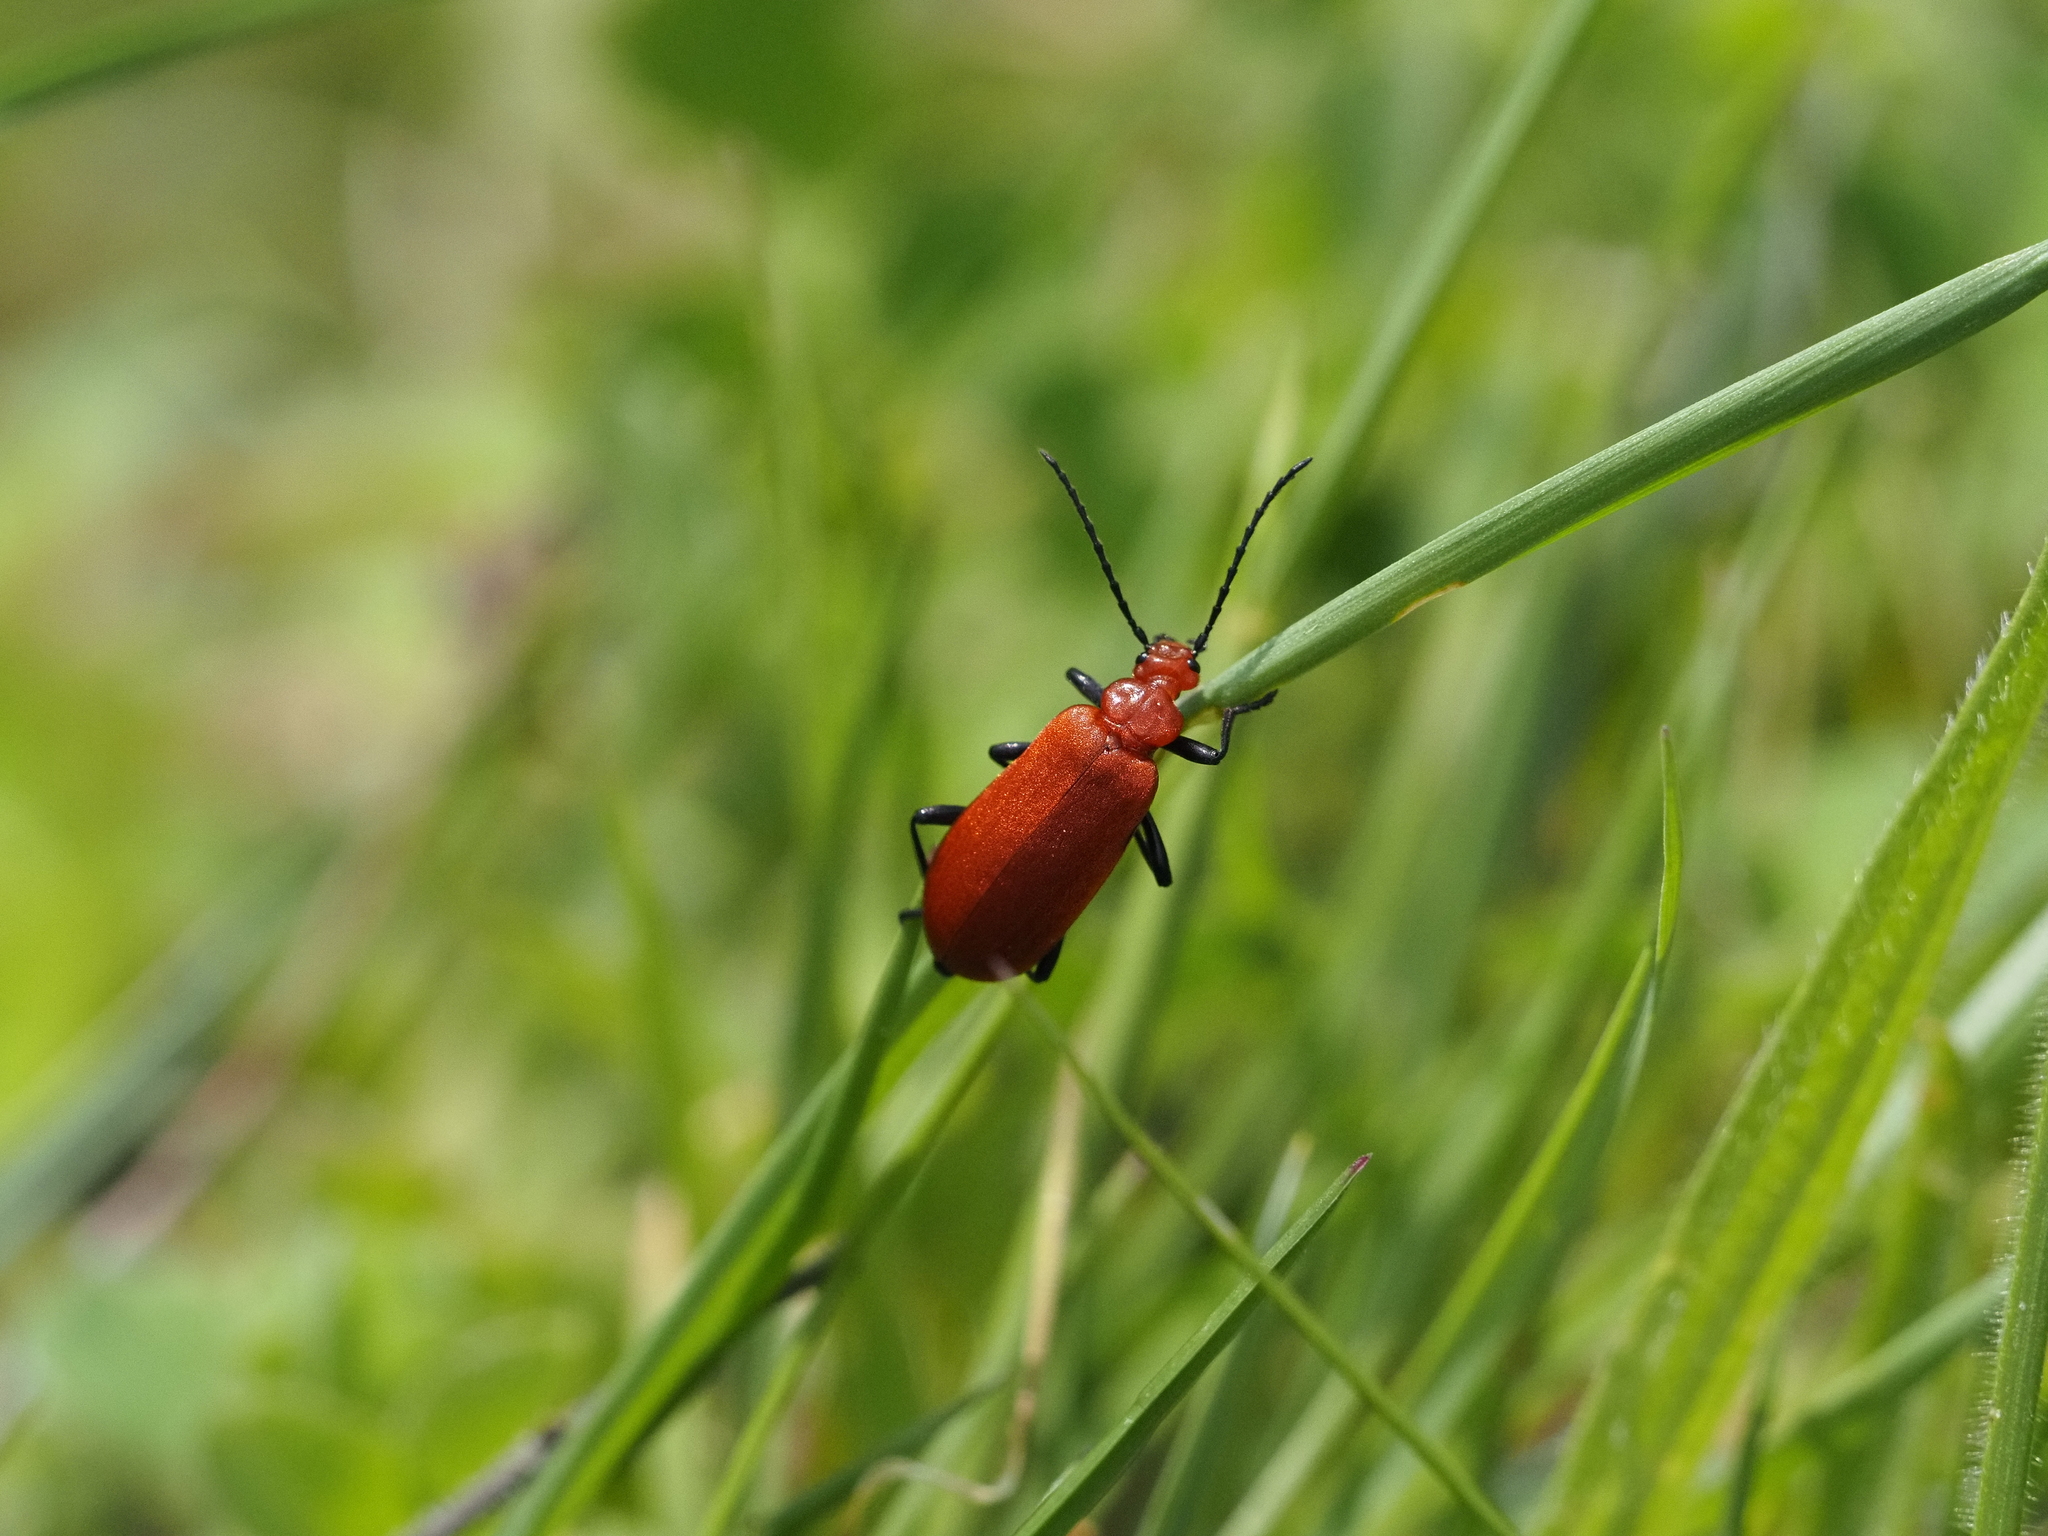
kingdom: Animalia
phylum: Arthropoda
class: Insecta
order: Coleoptera
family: Pyrochroidae
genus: Pyrochroa
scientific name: Pyrochroa serraticornis
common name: Red-headed cardinal beetle
